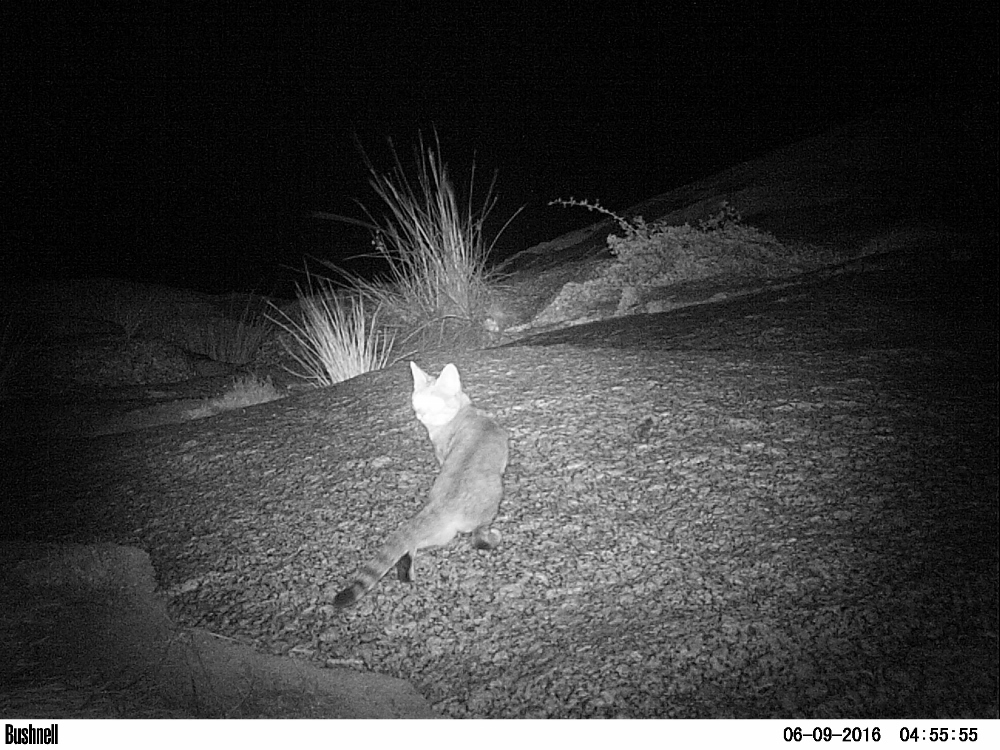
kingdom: Animalia
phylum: Chordata
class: Mammalia
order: Carnivora
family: Felidae
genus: Felis
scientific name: Felis silvestris
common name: Wildcat
